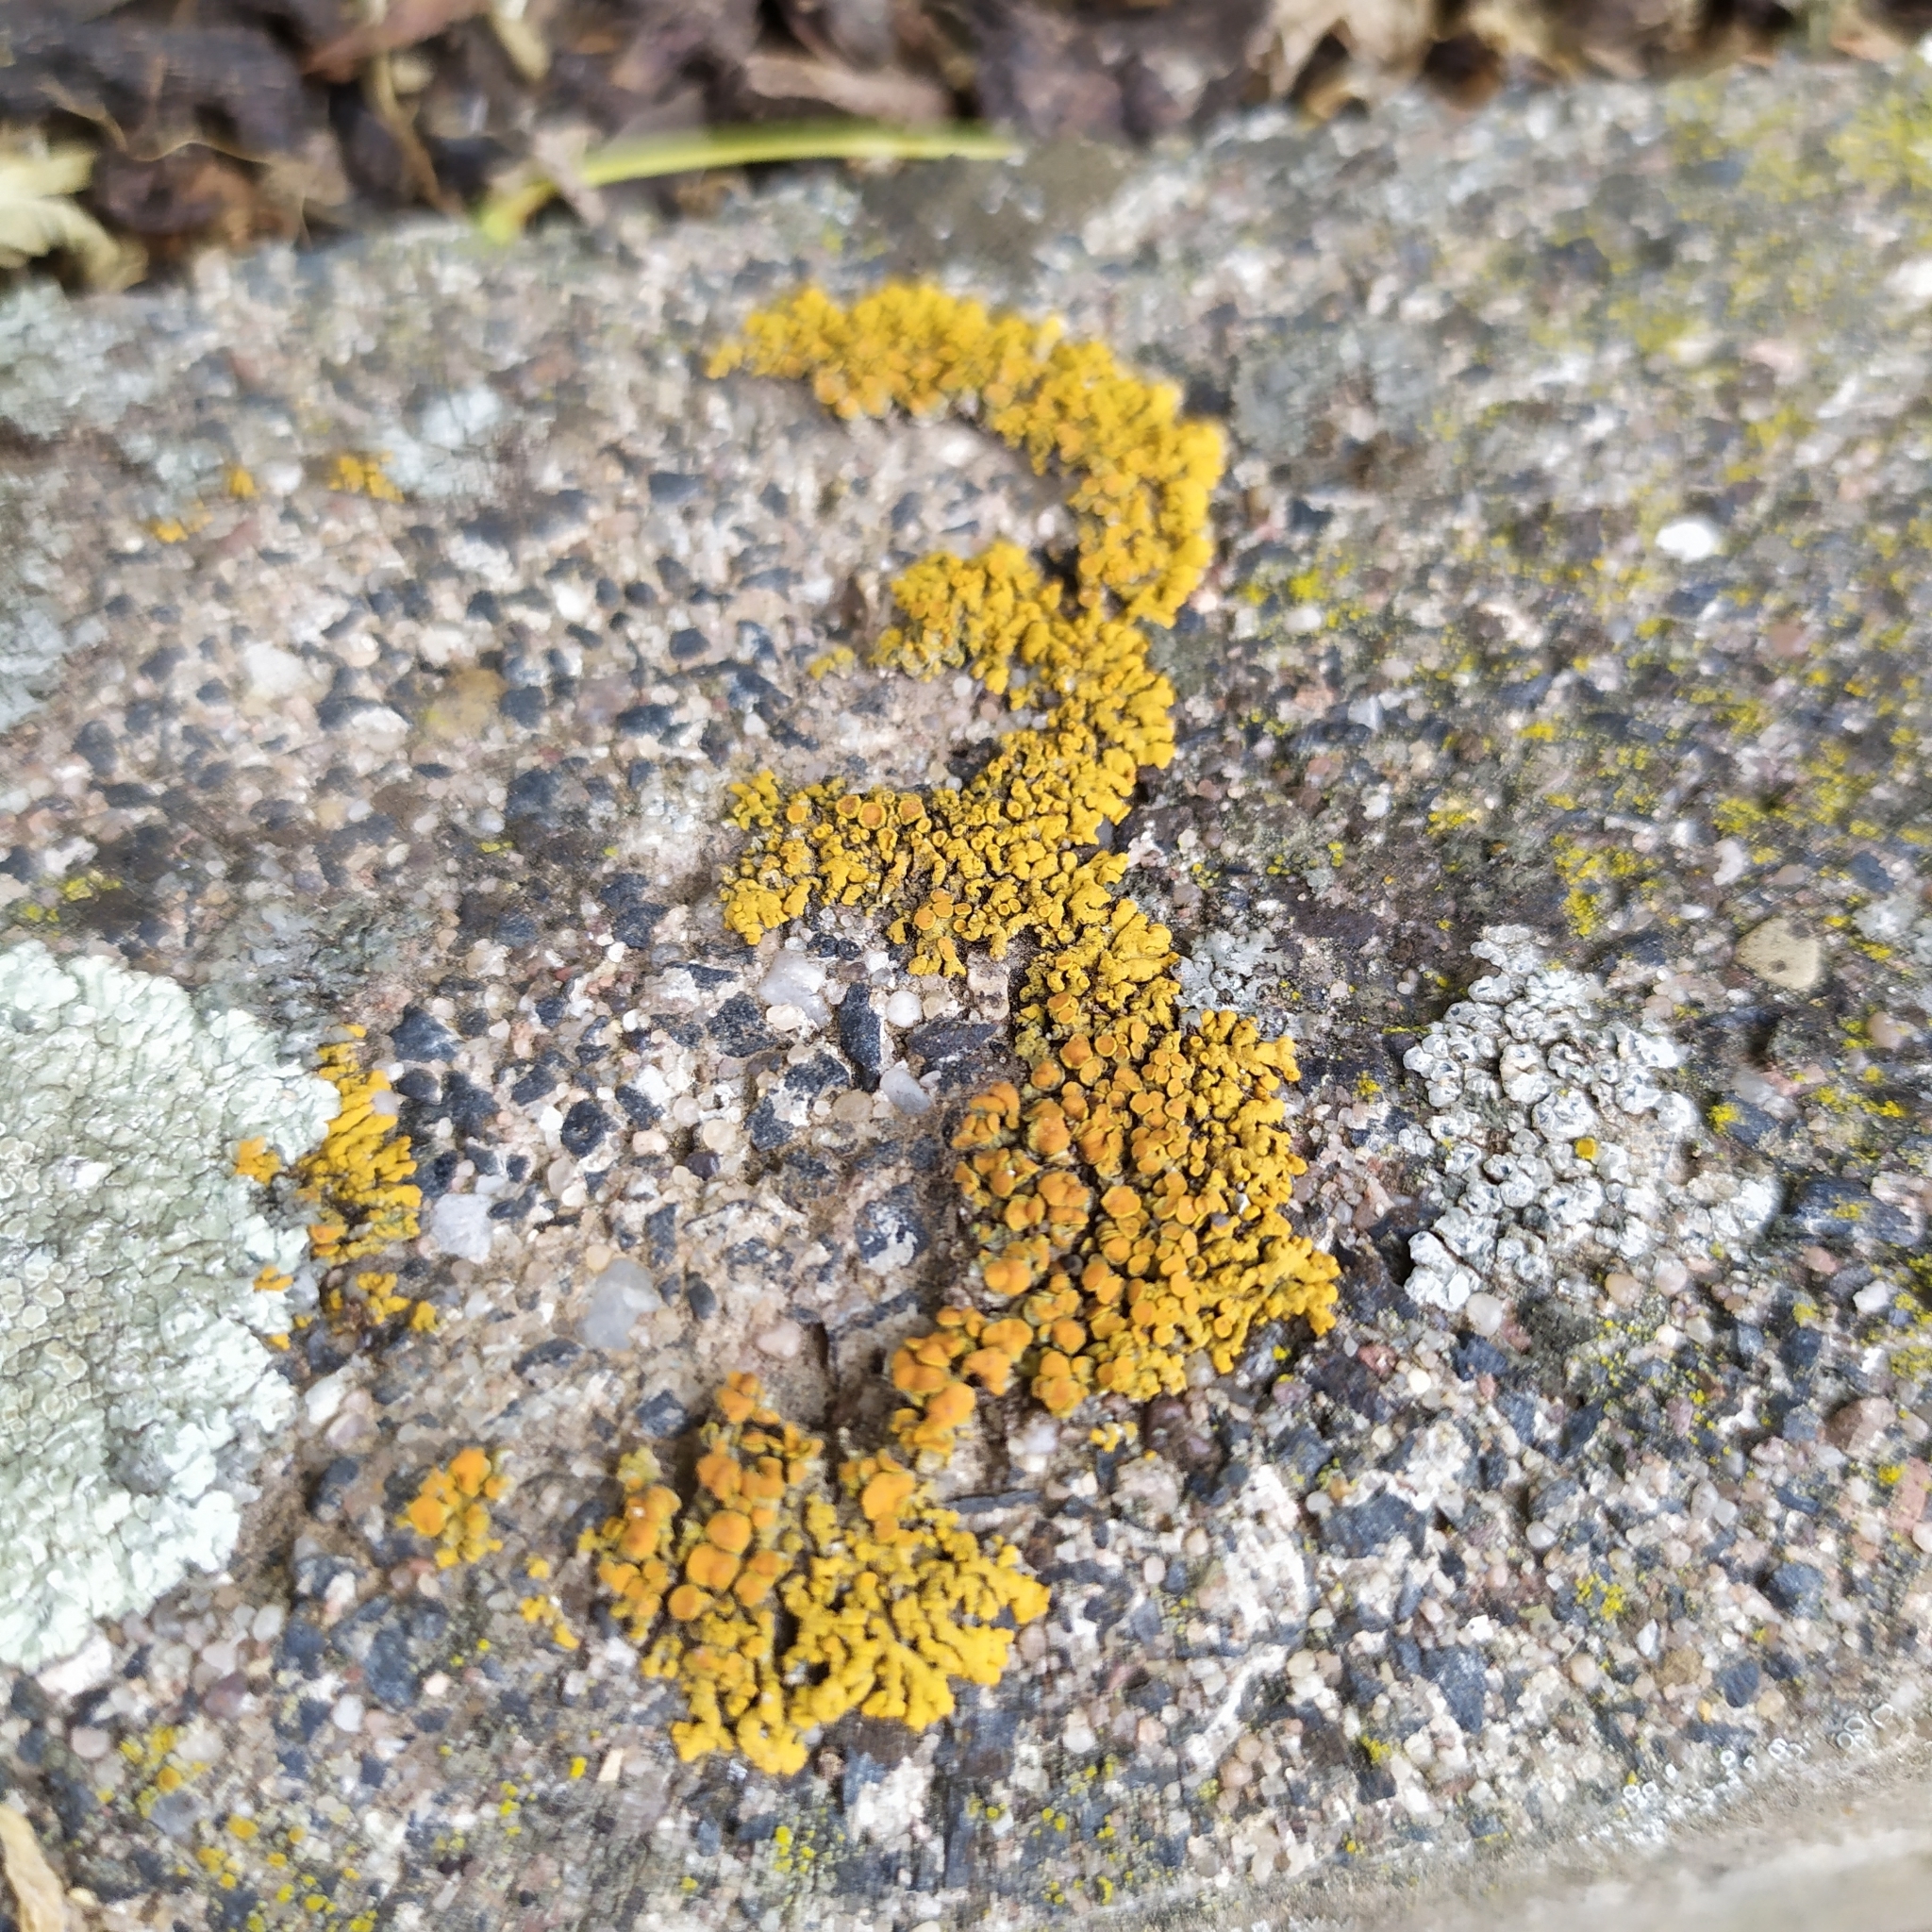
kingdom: Fungi
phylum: Ascomycota
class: Lecanoromycetes
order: Teloschistales
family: Teloschistaceae
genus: Xanthoria
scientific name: Xanthoria elegans
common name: Elegant sunburst lichen
